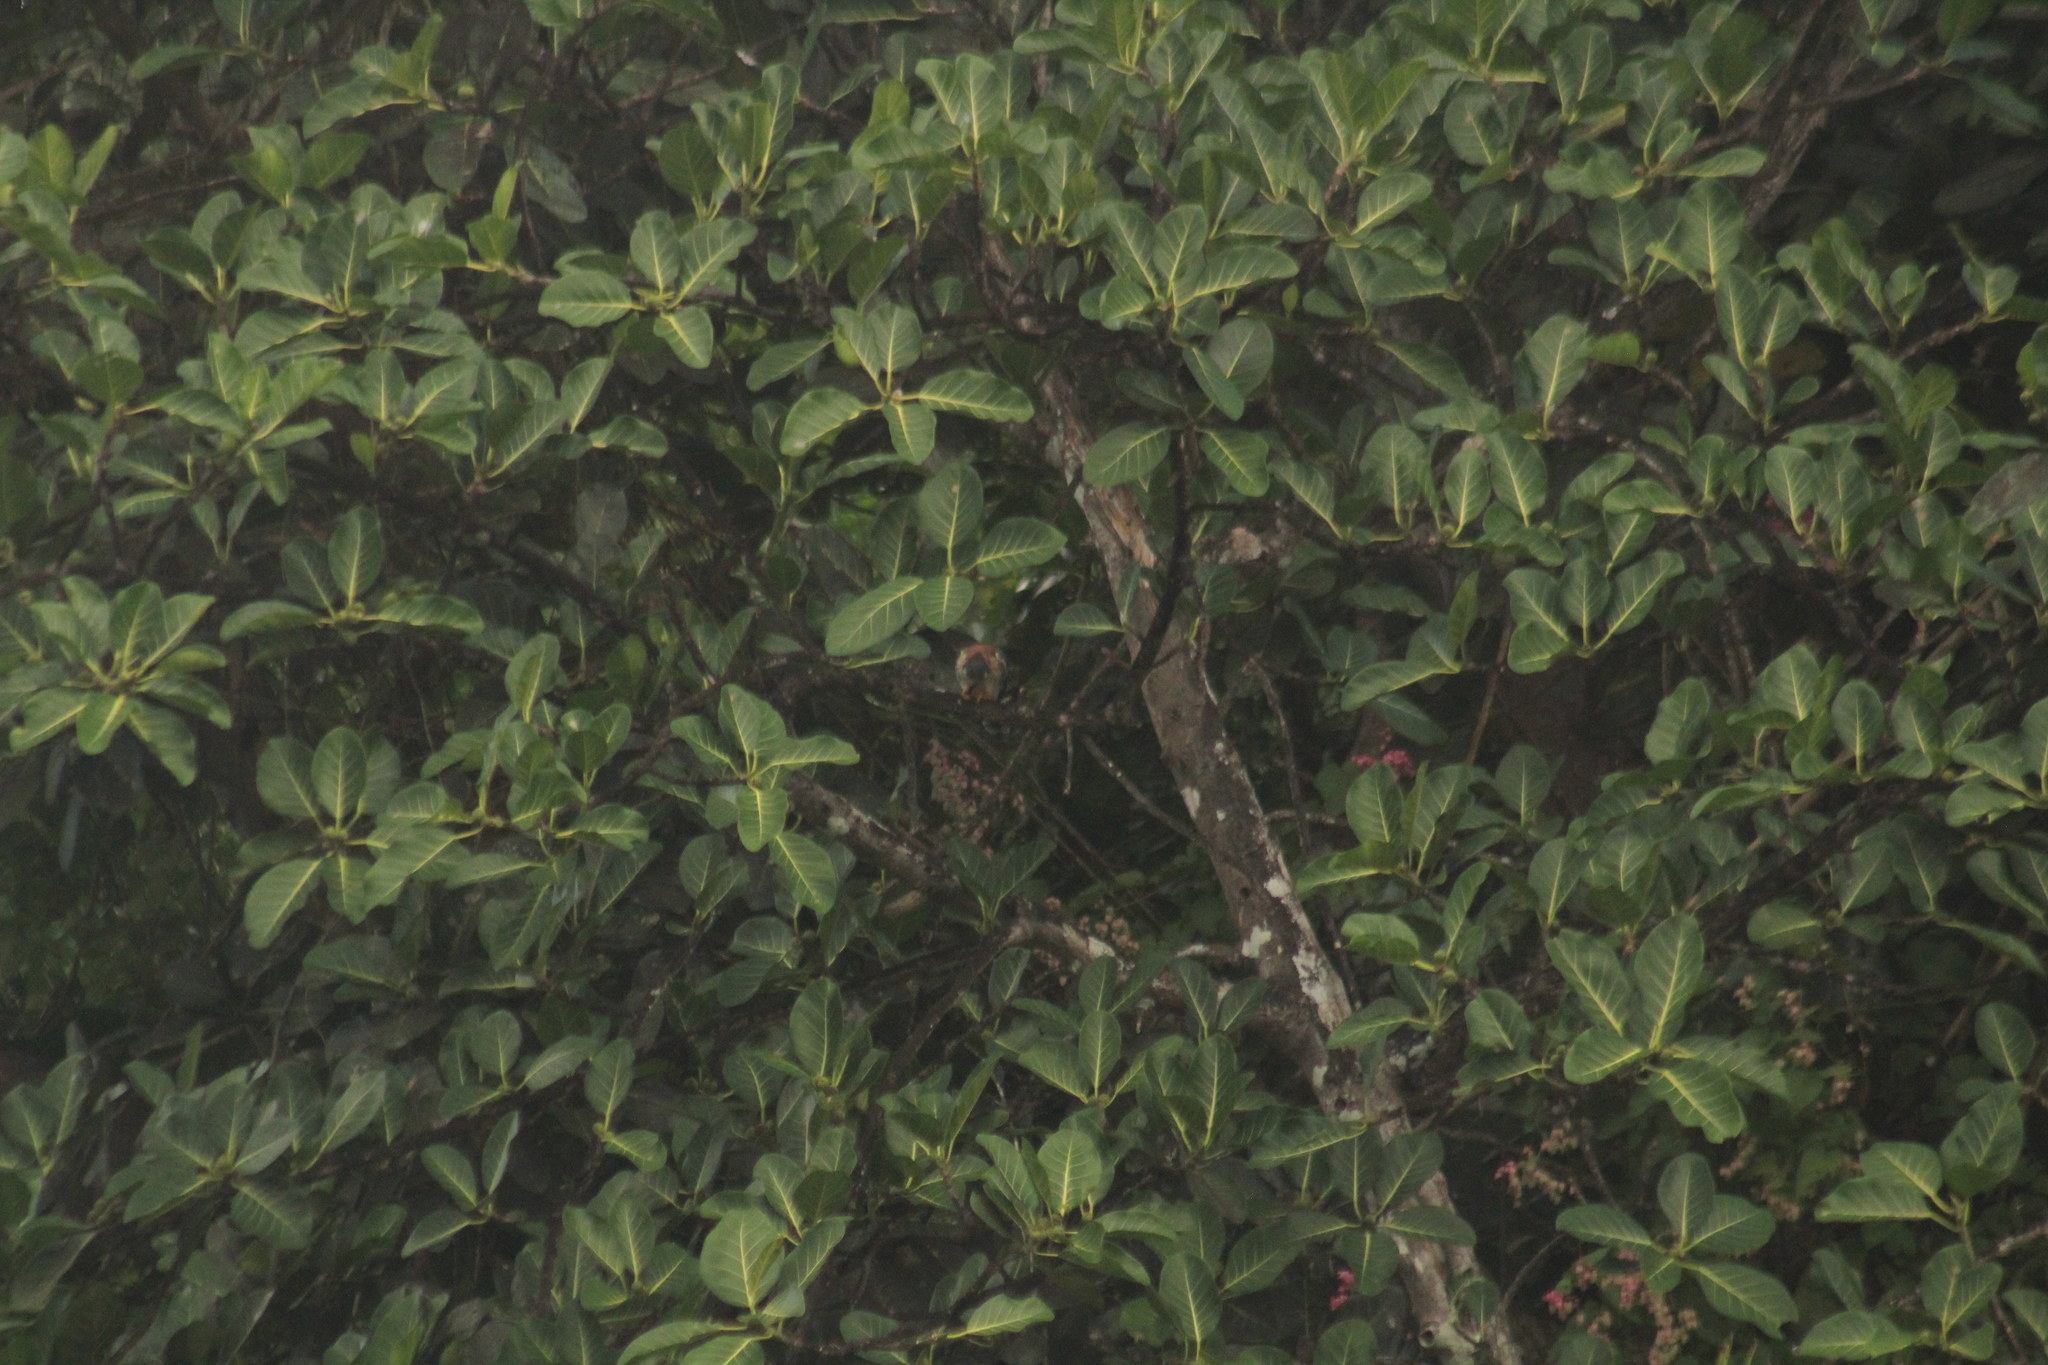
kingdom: Animalia
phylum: Chordata
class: Aves
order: Falconiformes
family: Falconidae
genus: Falco
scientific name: Falco sparverius
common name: American kestrel
